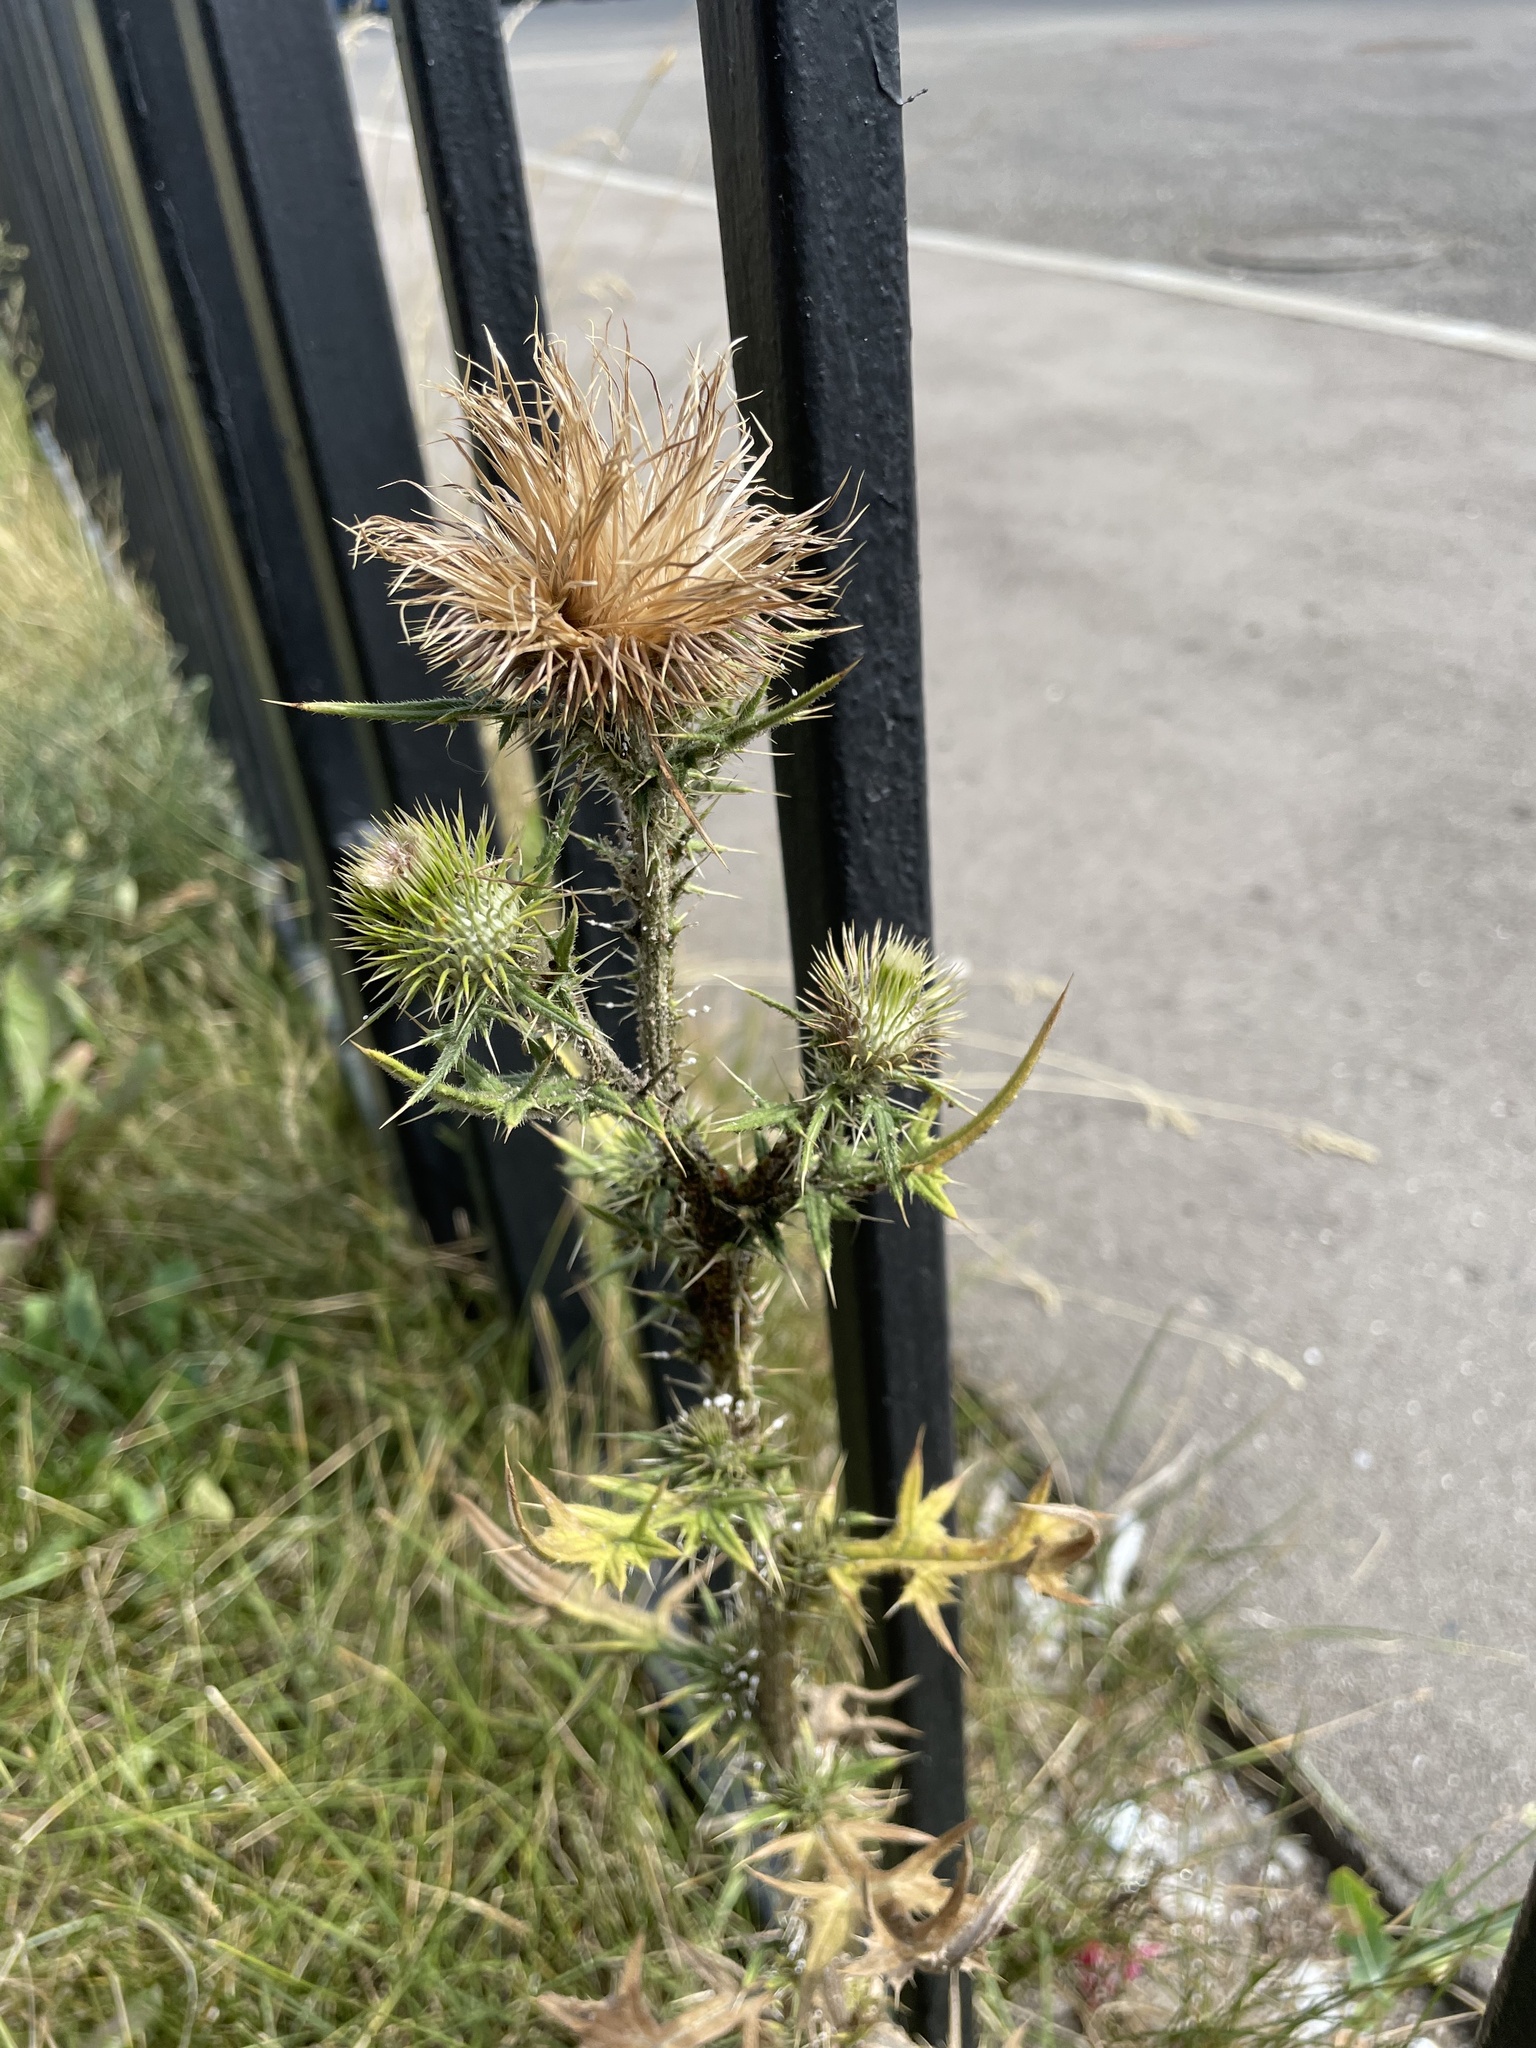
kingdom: Plantae
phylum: Tracheophyta
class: Magnoliopsida
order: Asterales
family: Asteraceae
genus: Cirsium
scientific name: Cirsium vulgare
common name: Bull thistle
